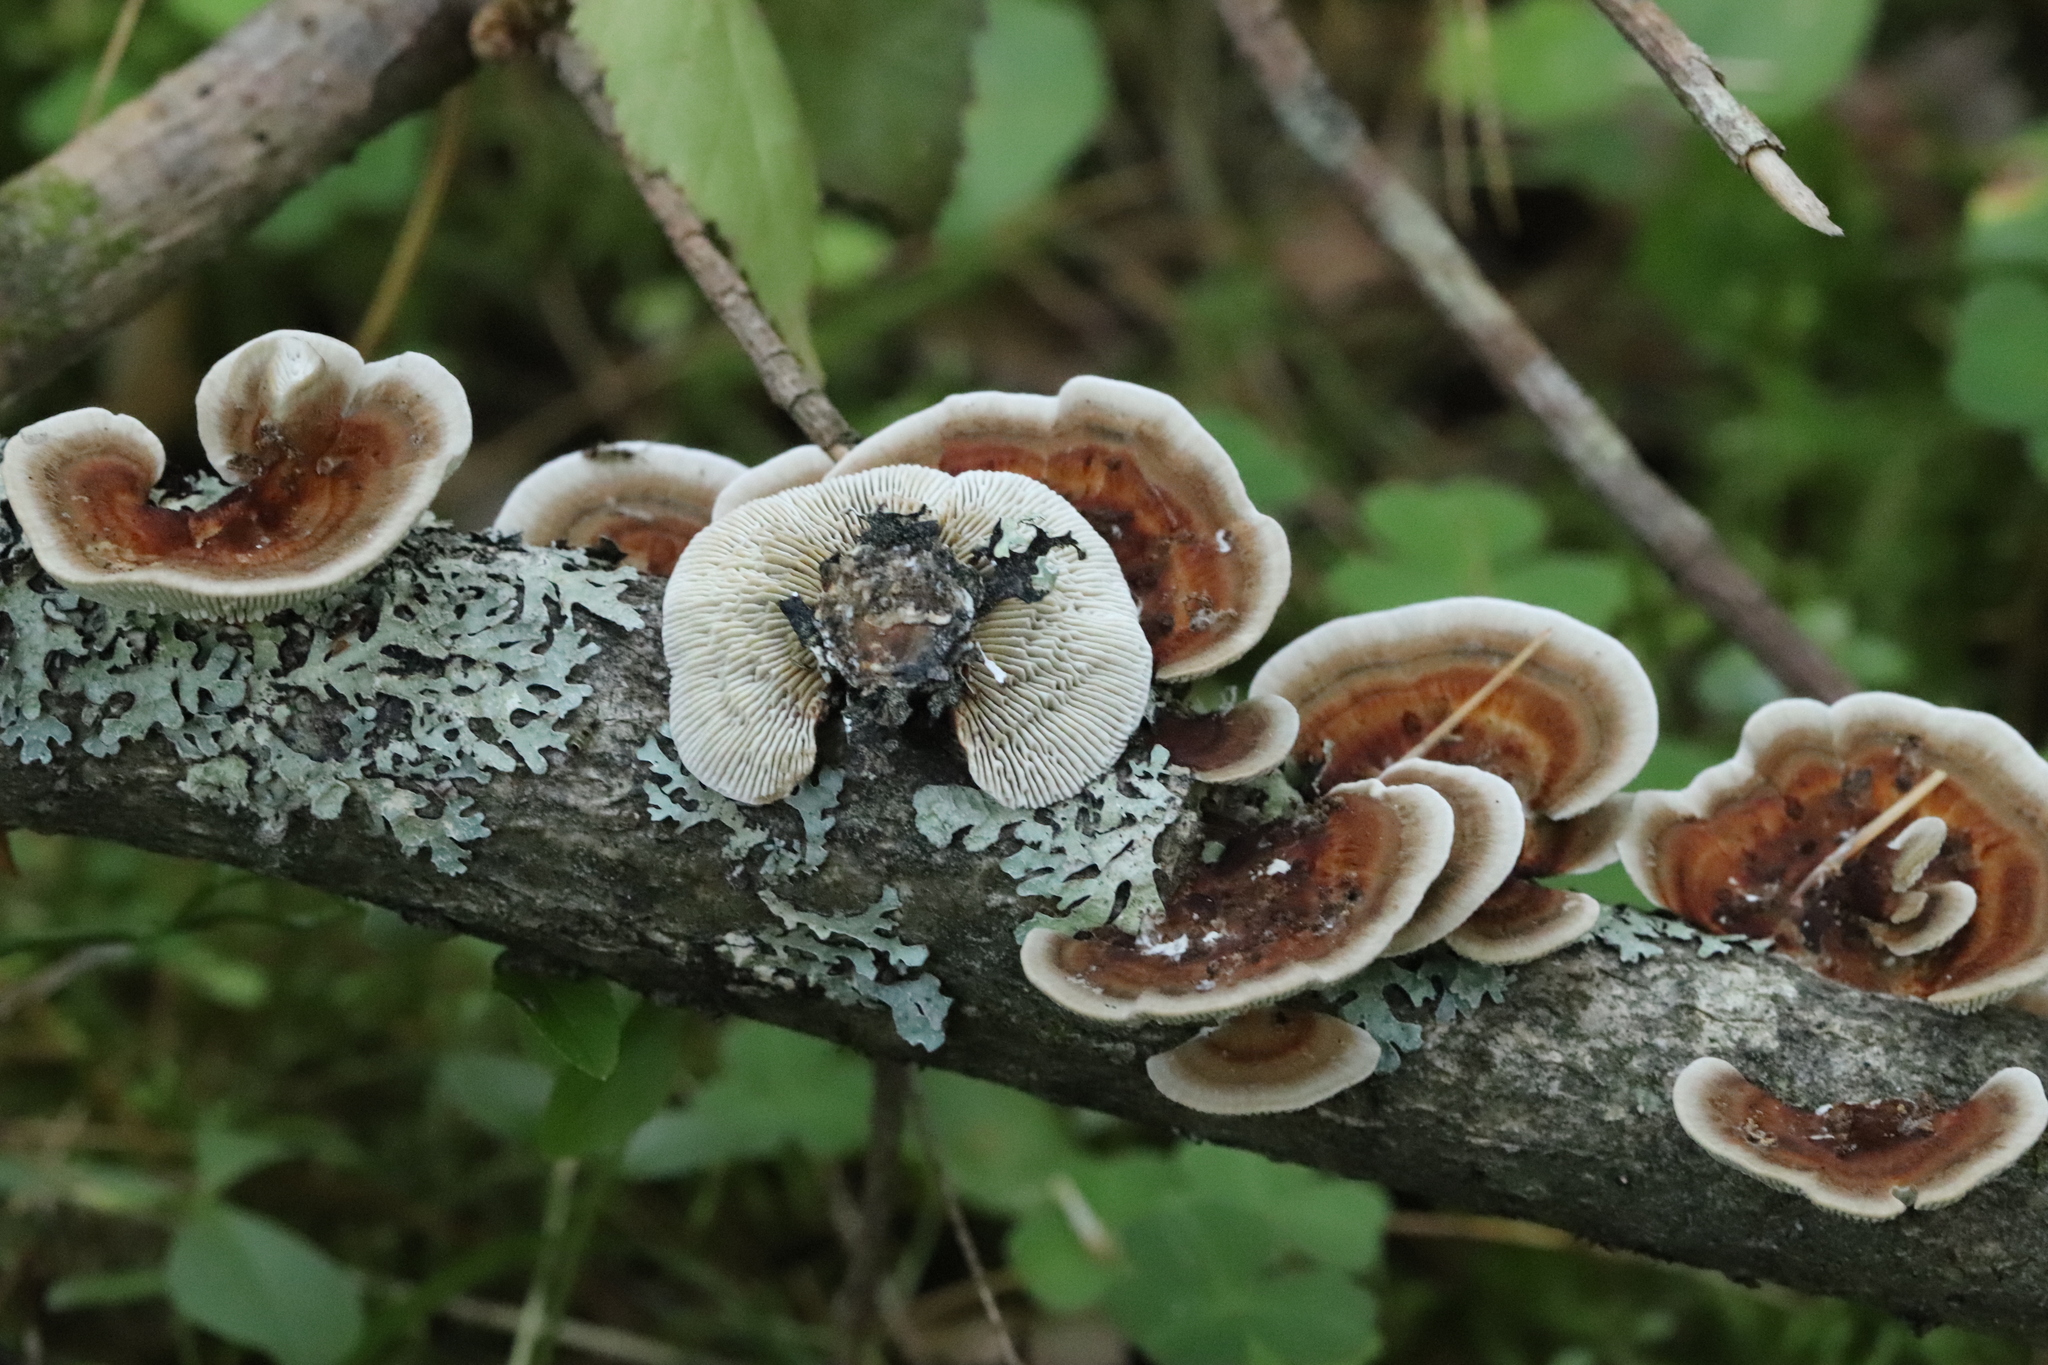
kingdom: Fungi
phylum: Basidiomycota
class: Agaricomycetes
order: Polyporales
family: Polyporaceae
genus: Daedaleopsis
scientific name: Daedaleopsis septentrionalis
